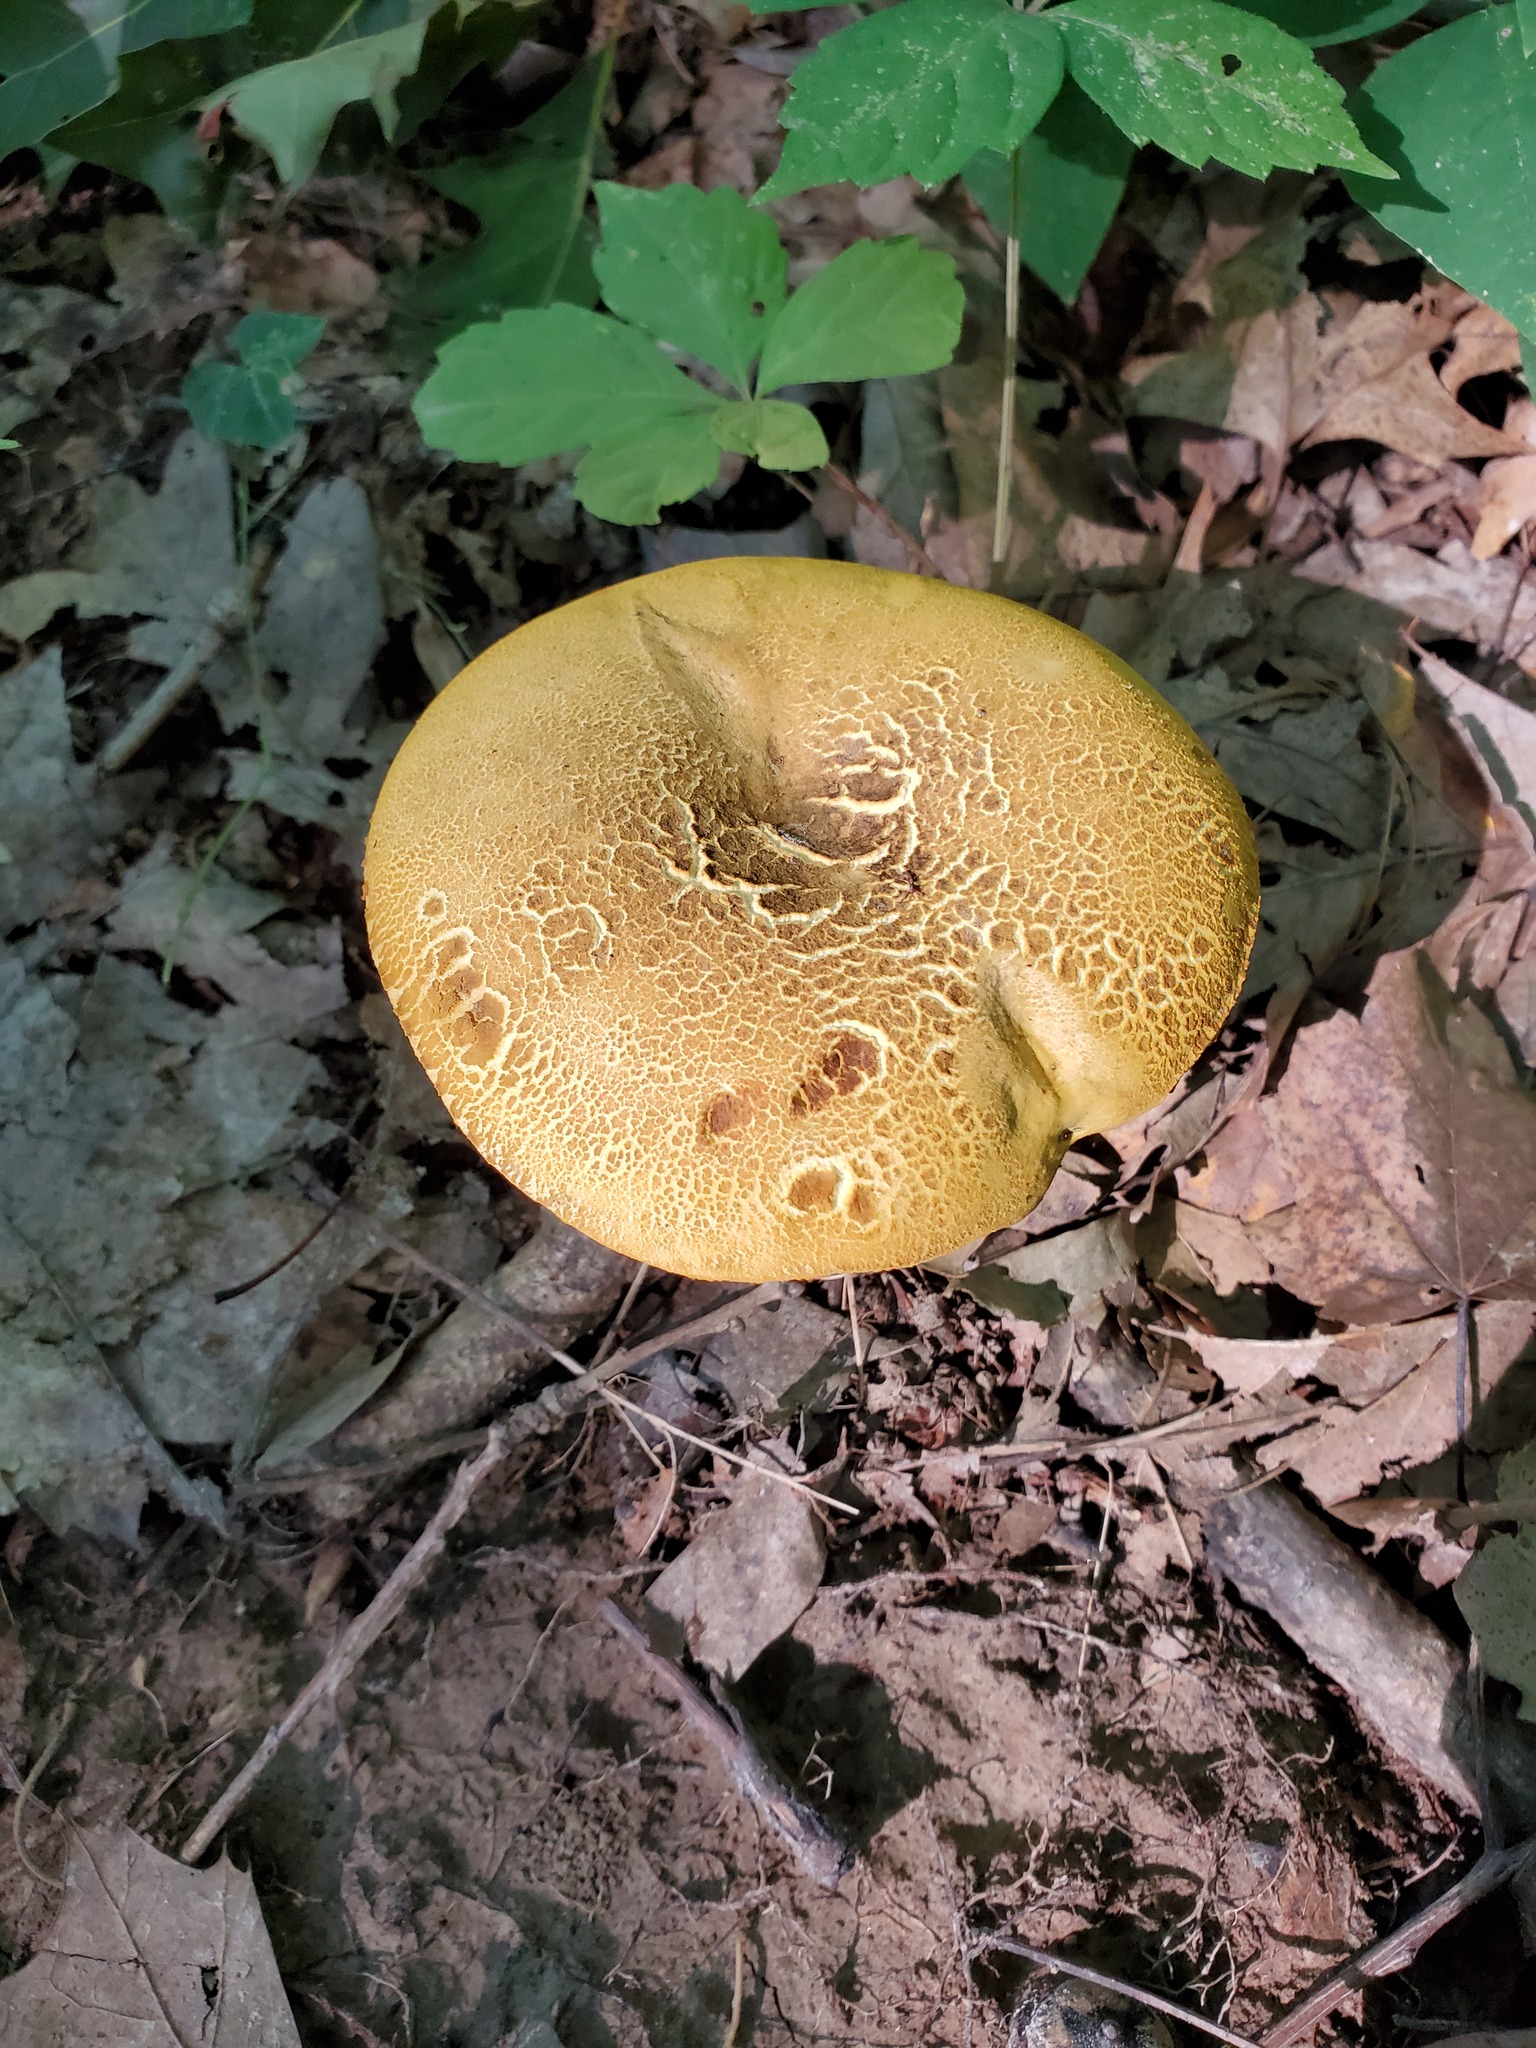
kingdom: Fungi
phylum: Basidiomycota
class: Agaricomycetes
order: Boletales
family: Boletaceae
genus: Retiboletus
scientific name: Retiboletus ornatipes
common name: Ornate-stalked bolete
